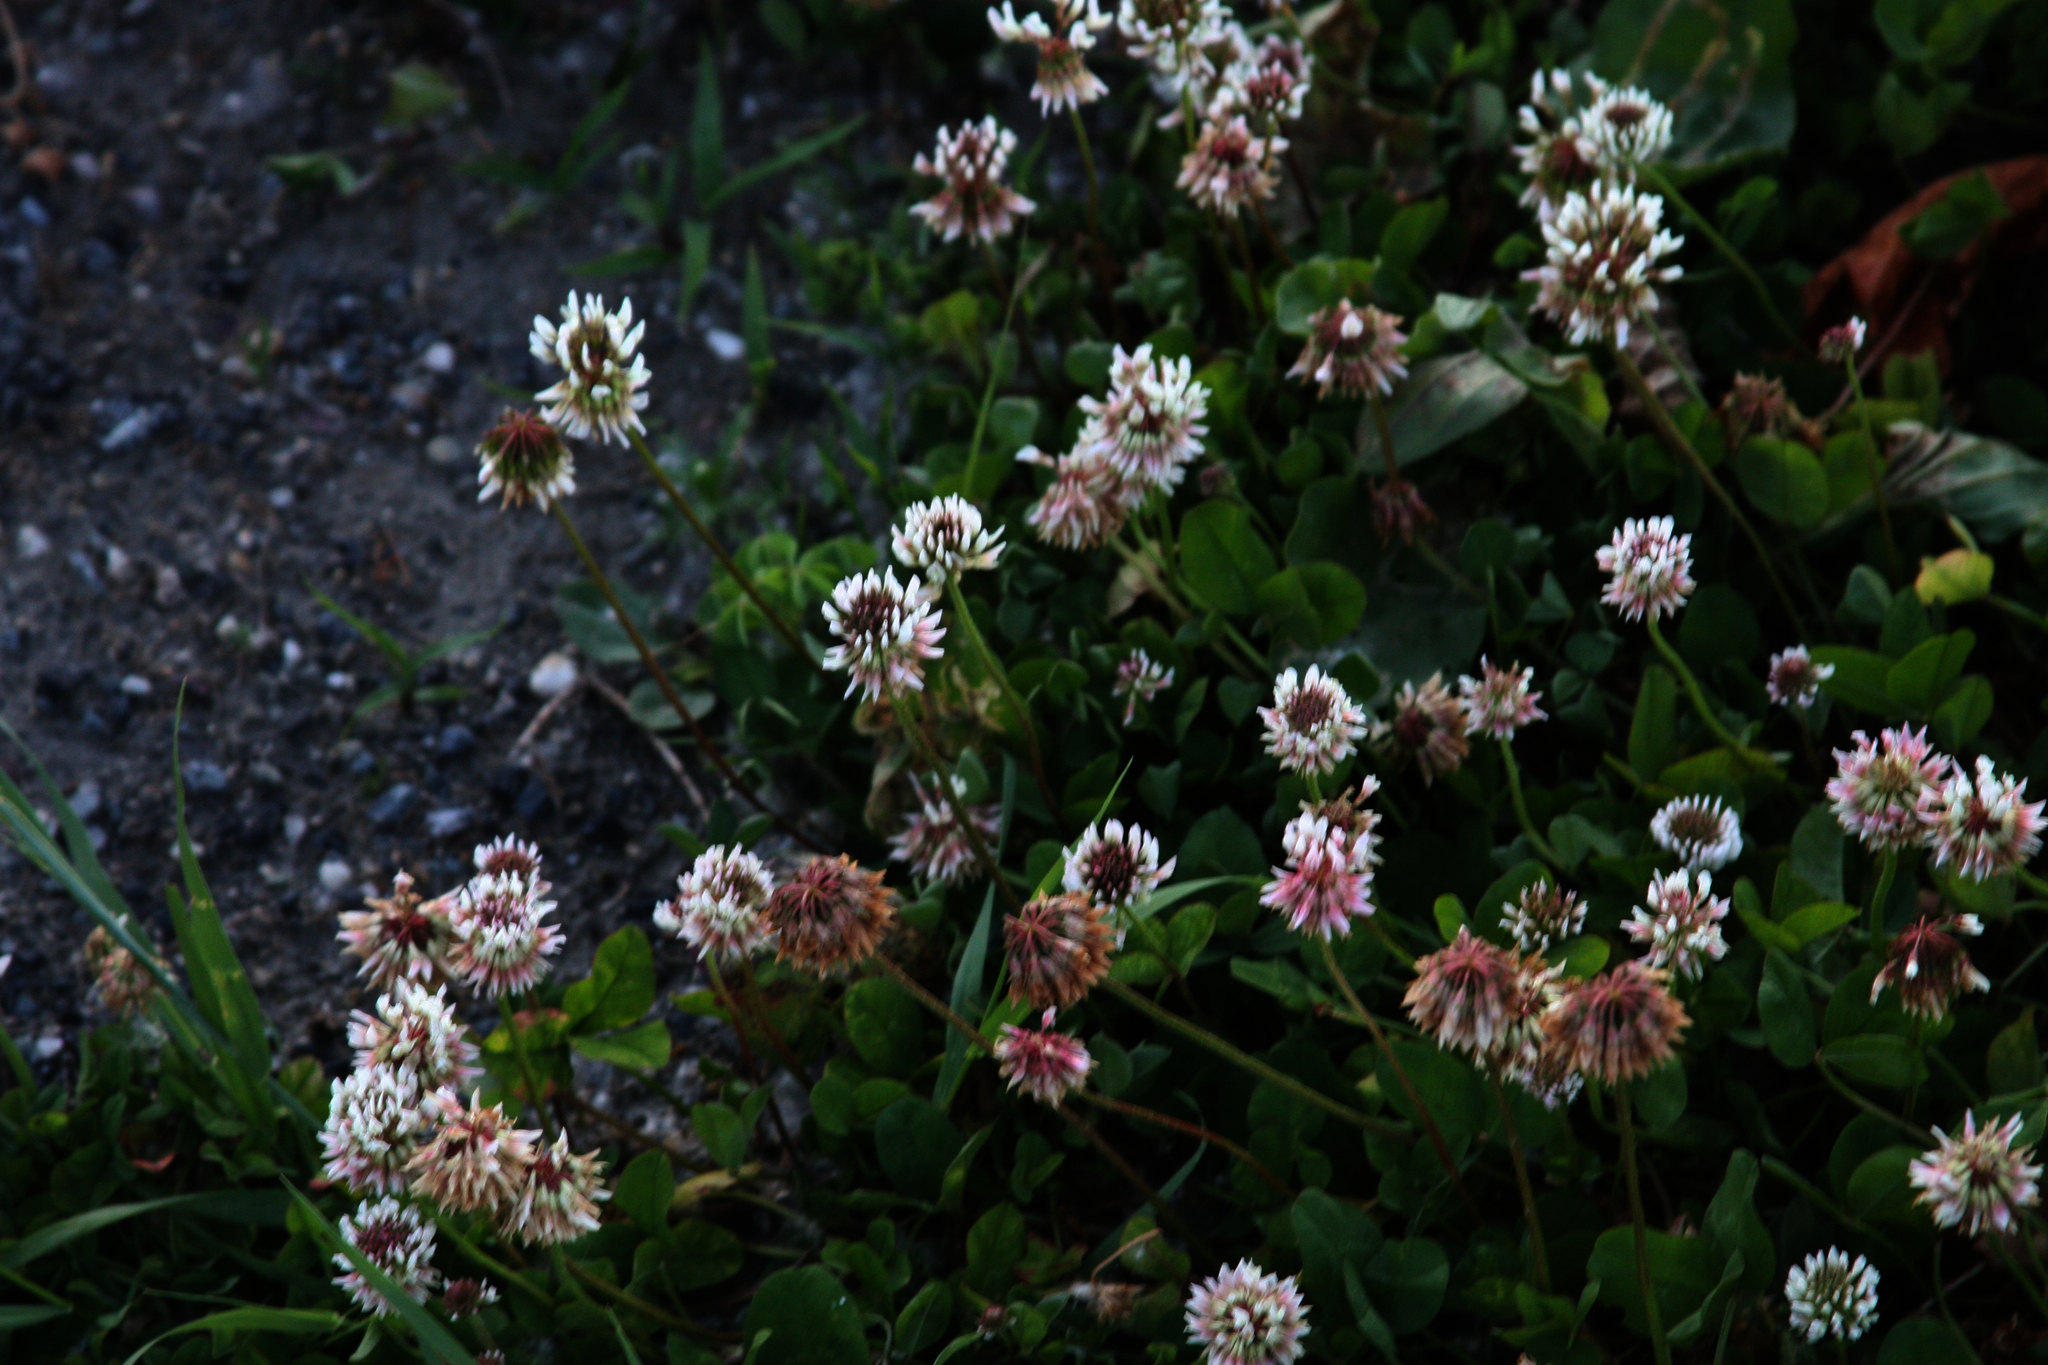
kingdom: Plantae
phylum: Tracheophyta
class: Magnoliopsida
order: Fabales
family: Fabaceae
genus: Trifolium
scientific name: Trifolium repens
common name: White clover
